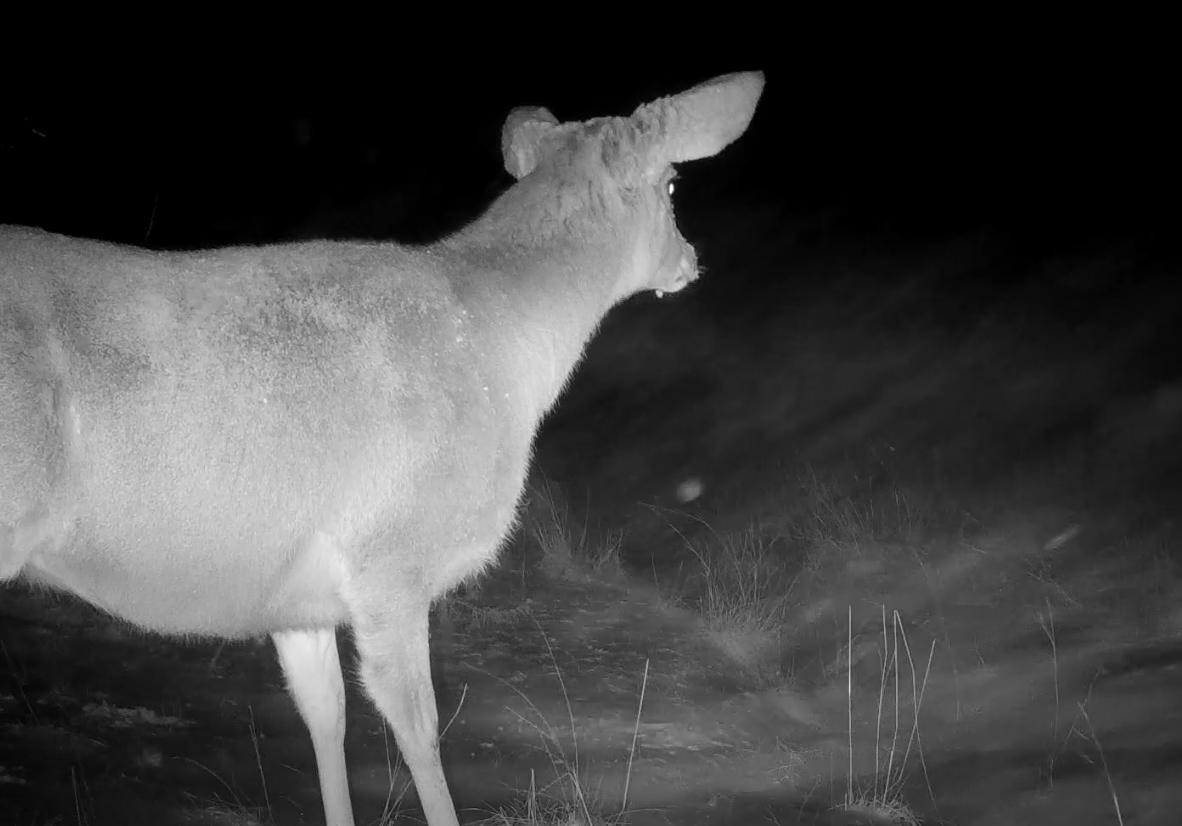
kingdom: Animalia
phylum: Chordata
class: Mammalia
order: Artiodactyla
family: Cervidae
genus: Odocoileus
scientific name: Odocoileus hemionus
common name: Mule deer
